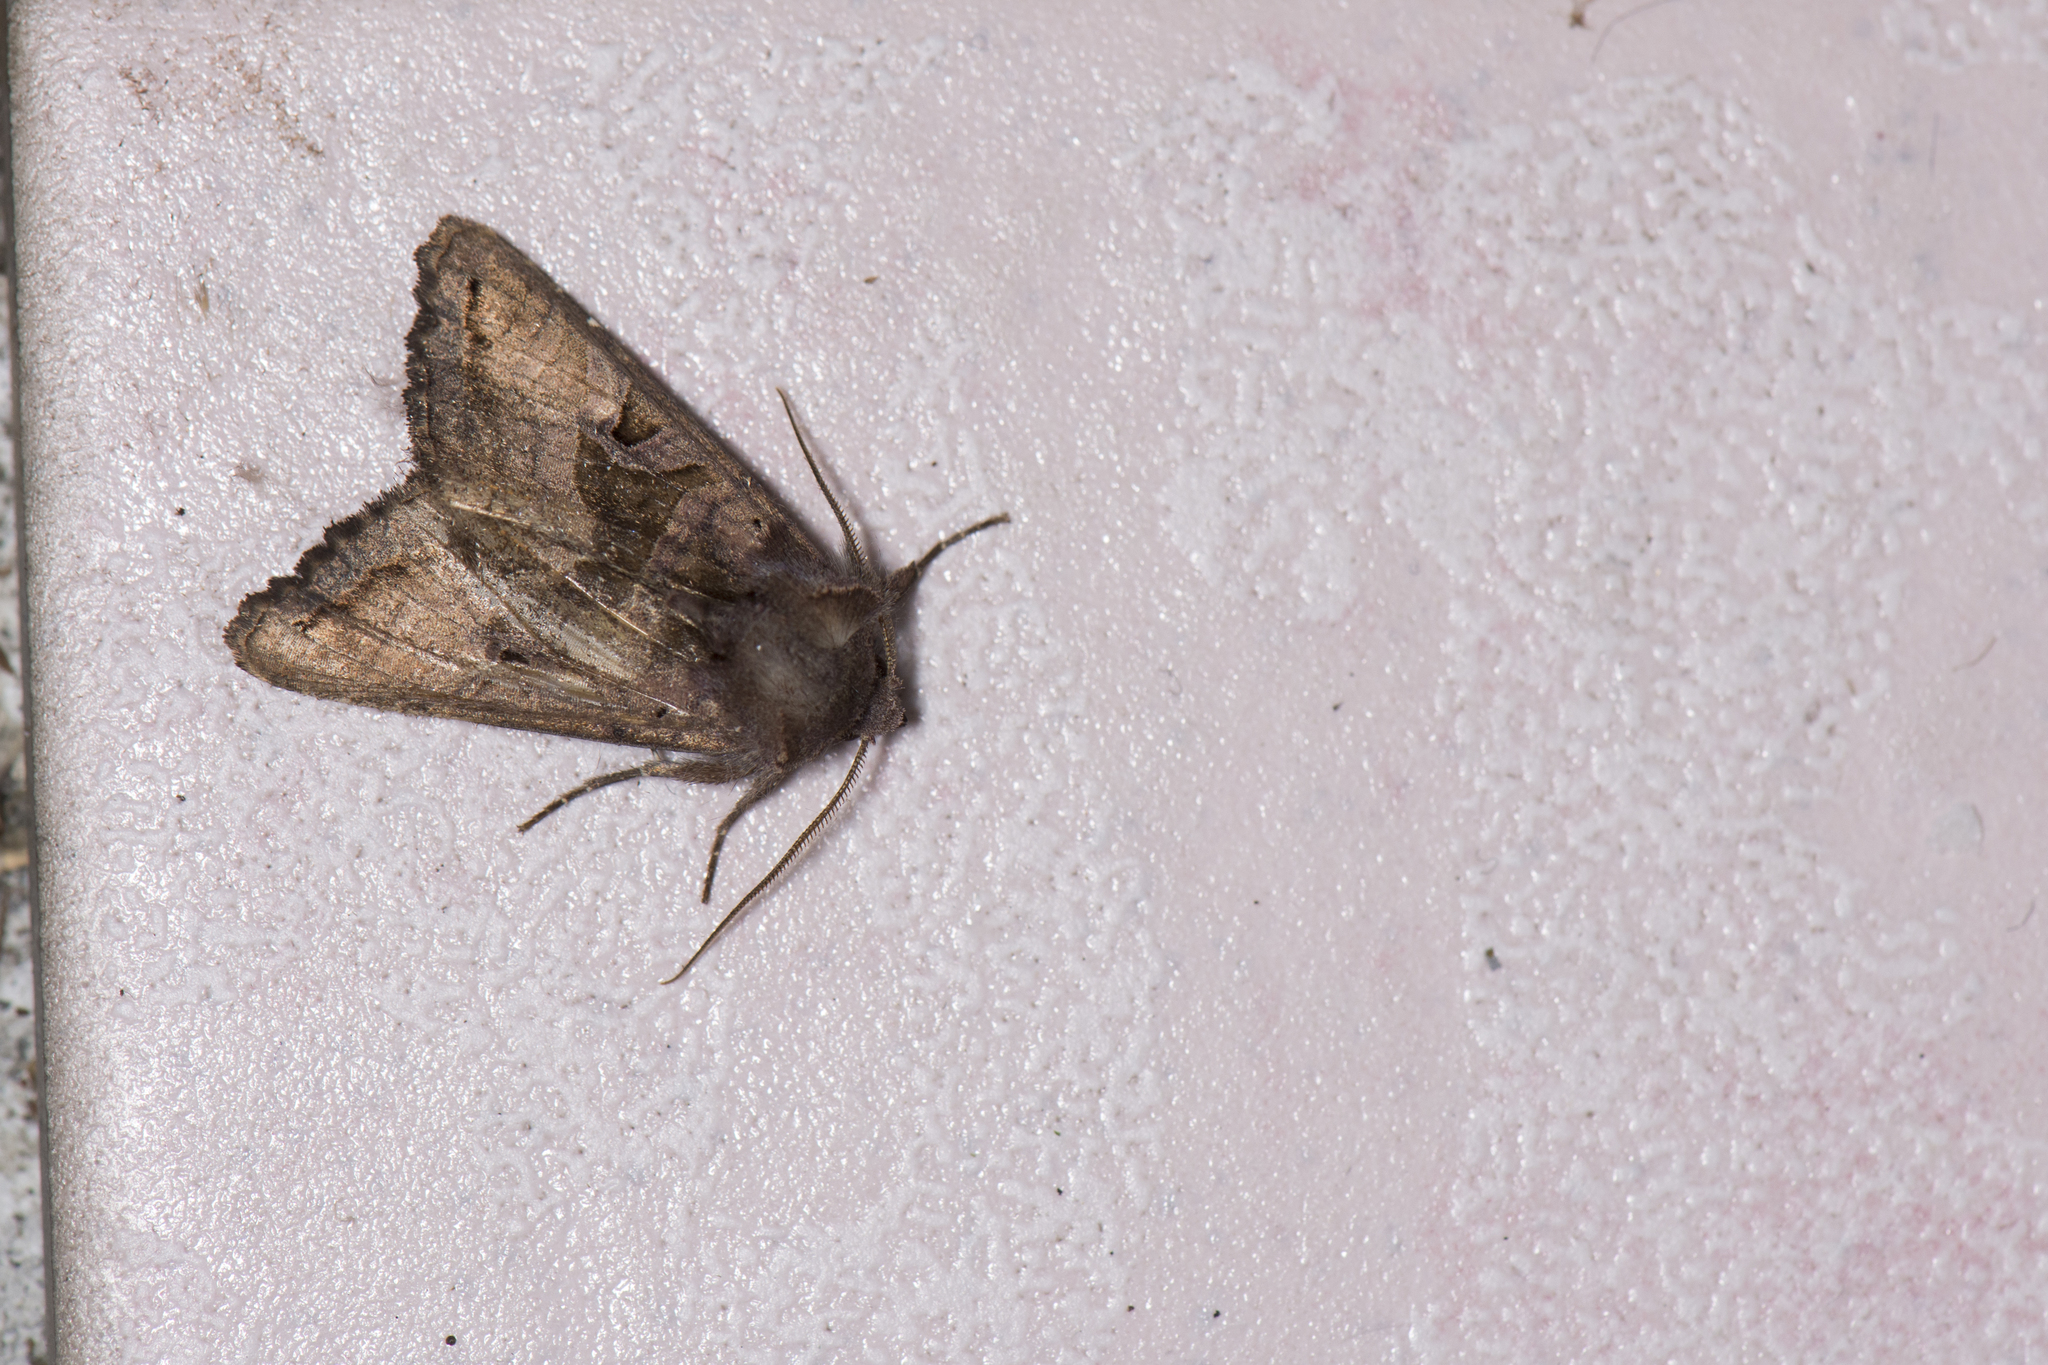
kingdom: Animalia
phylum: Arthropoda
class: Insecta
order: Lepidoptera
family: Noctuidae
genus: Phlogophora
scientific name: Phlogophora insularis
